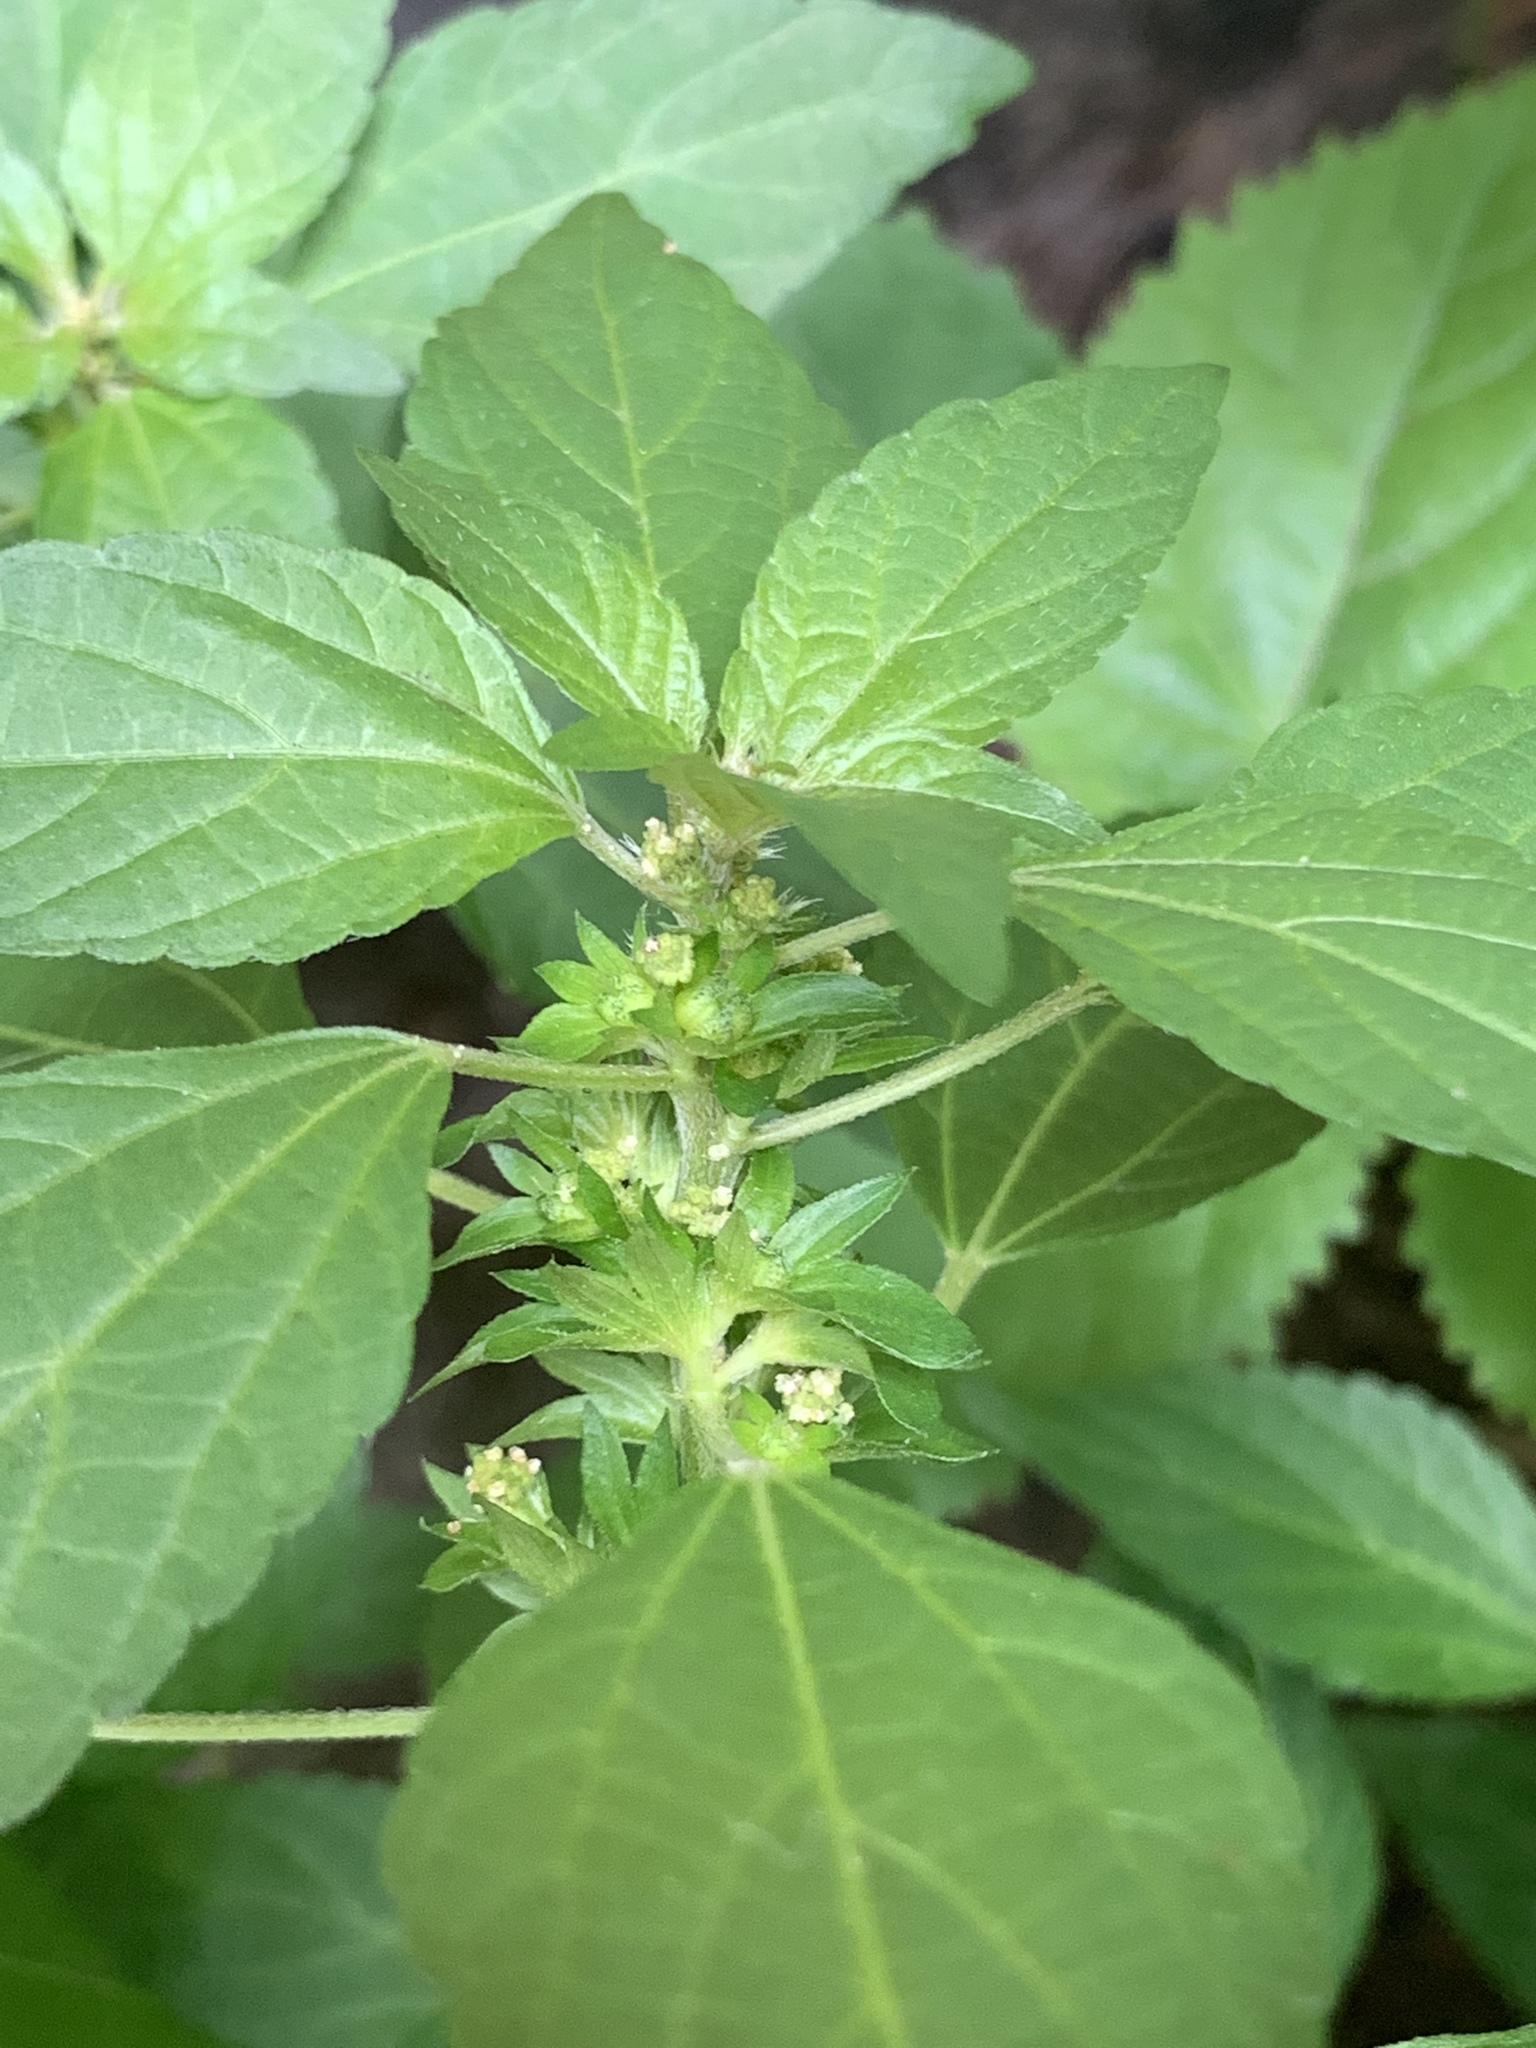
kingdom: Plantae
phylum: Tracheophyta
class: Magnoliopsida
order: Malpighiales
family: Euphorbiaceae
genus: Acalypha
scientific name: Acalypha rhomboidea
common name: Rhombic copperleaf
